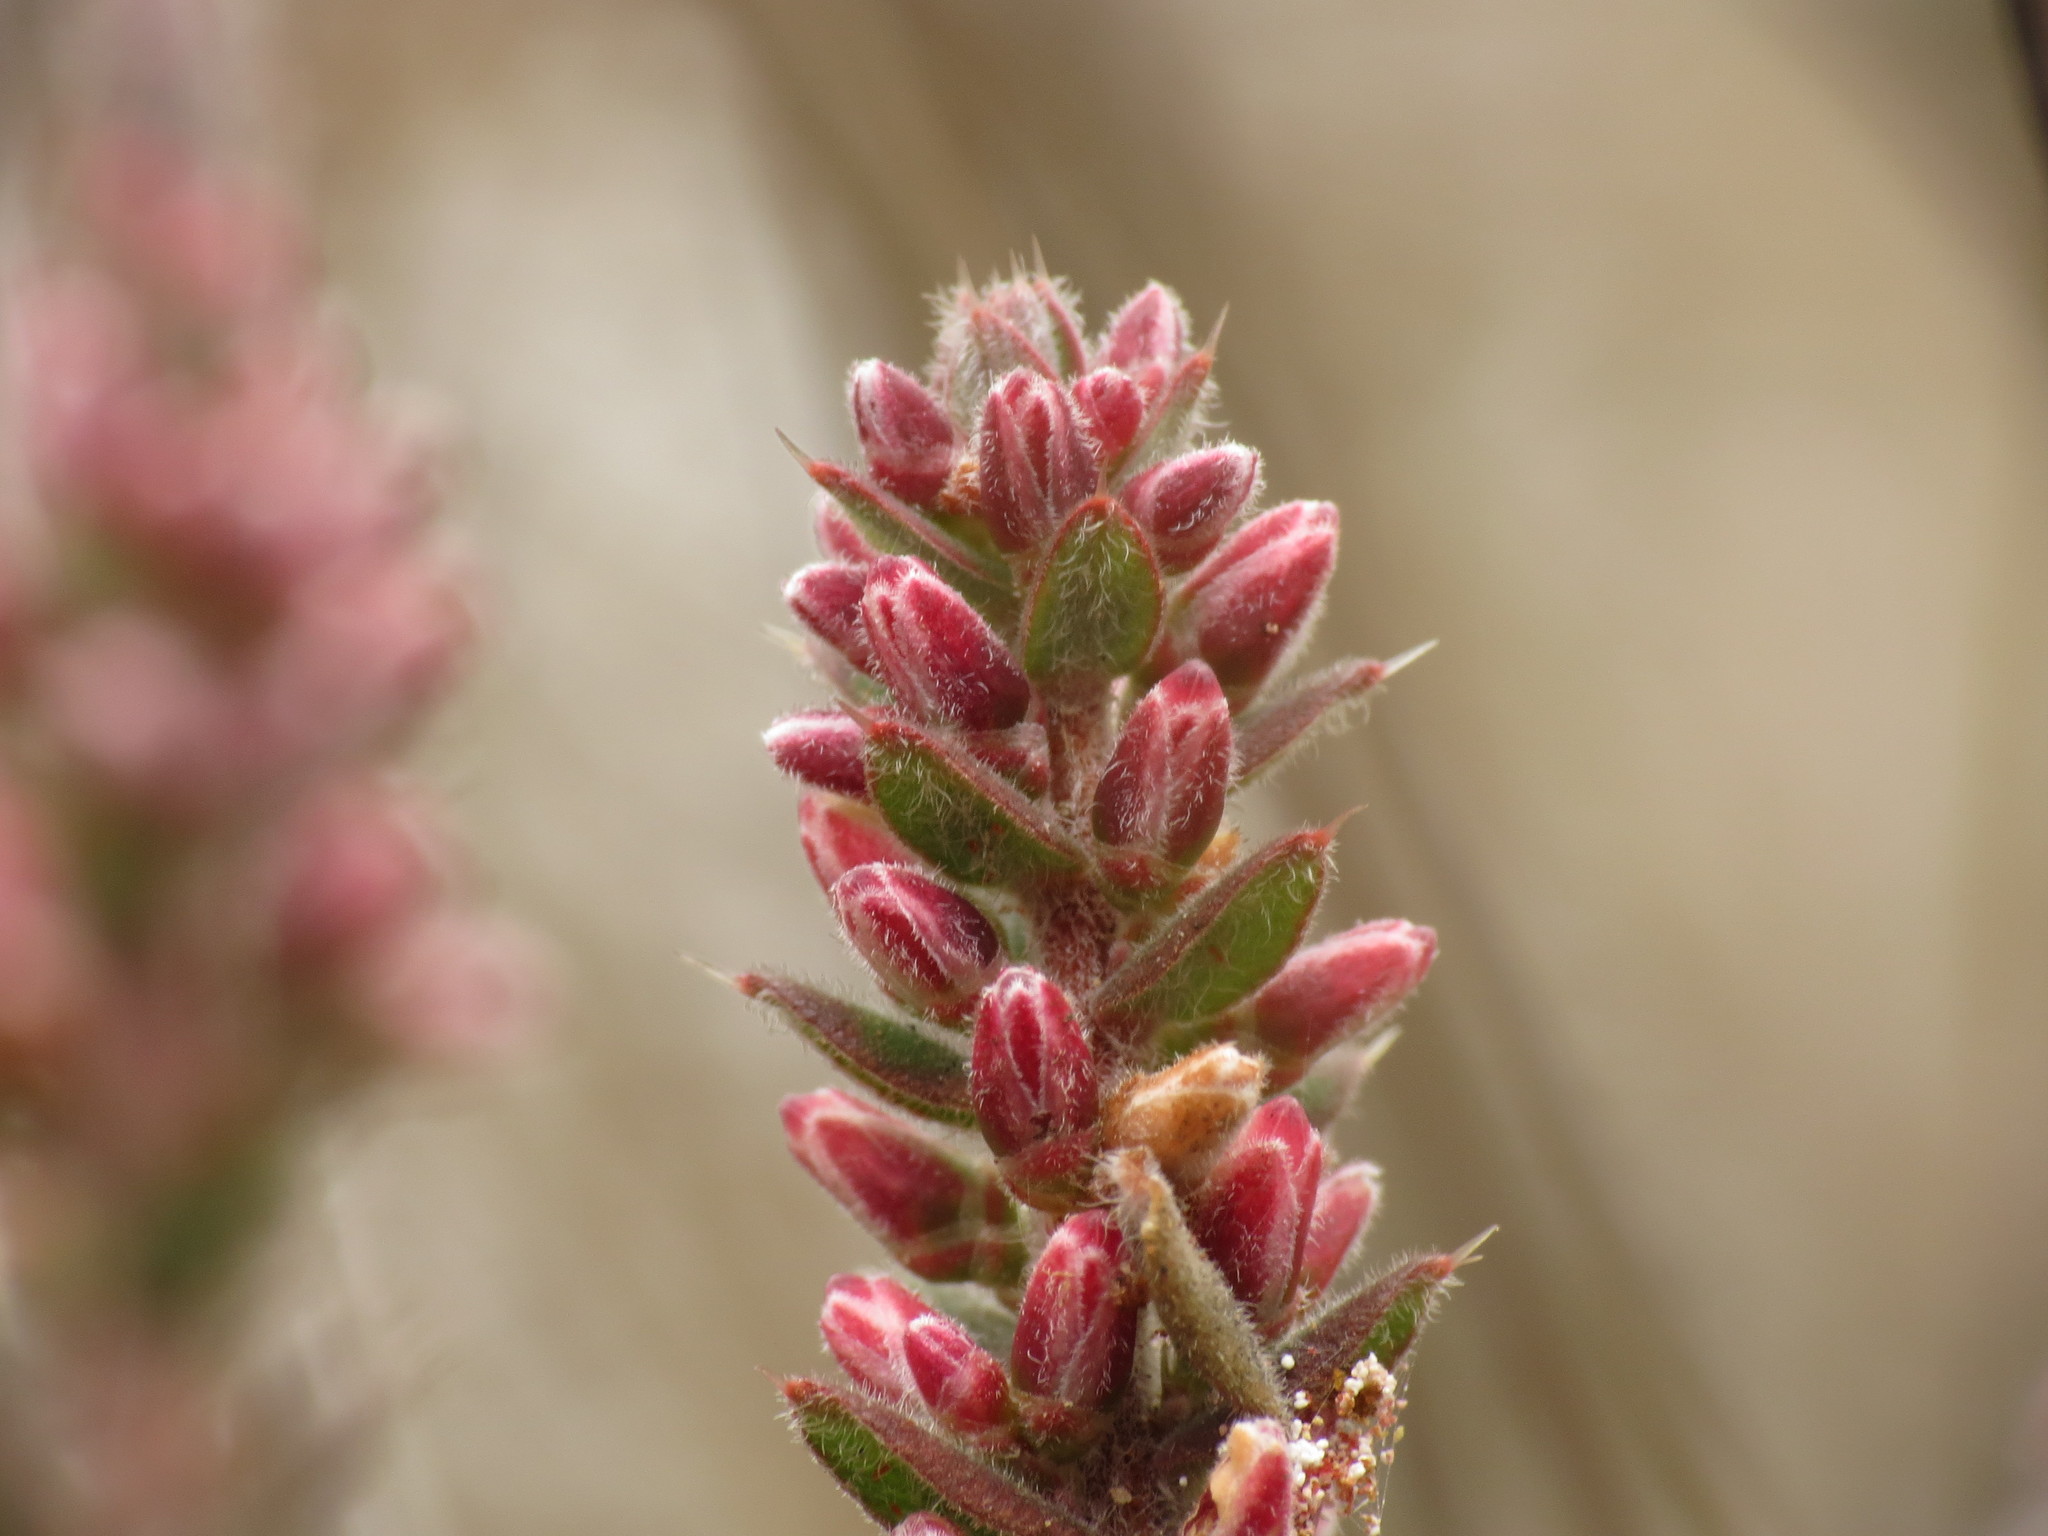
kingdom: Plantae
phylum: Tracheophyta
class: Magnoliopsida
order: Ericales
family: Ericaceae
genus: Styphelia
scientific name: Styphelia attenuata
